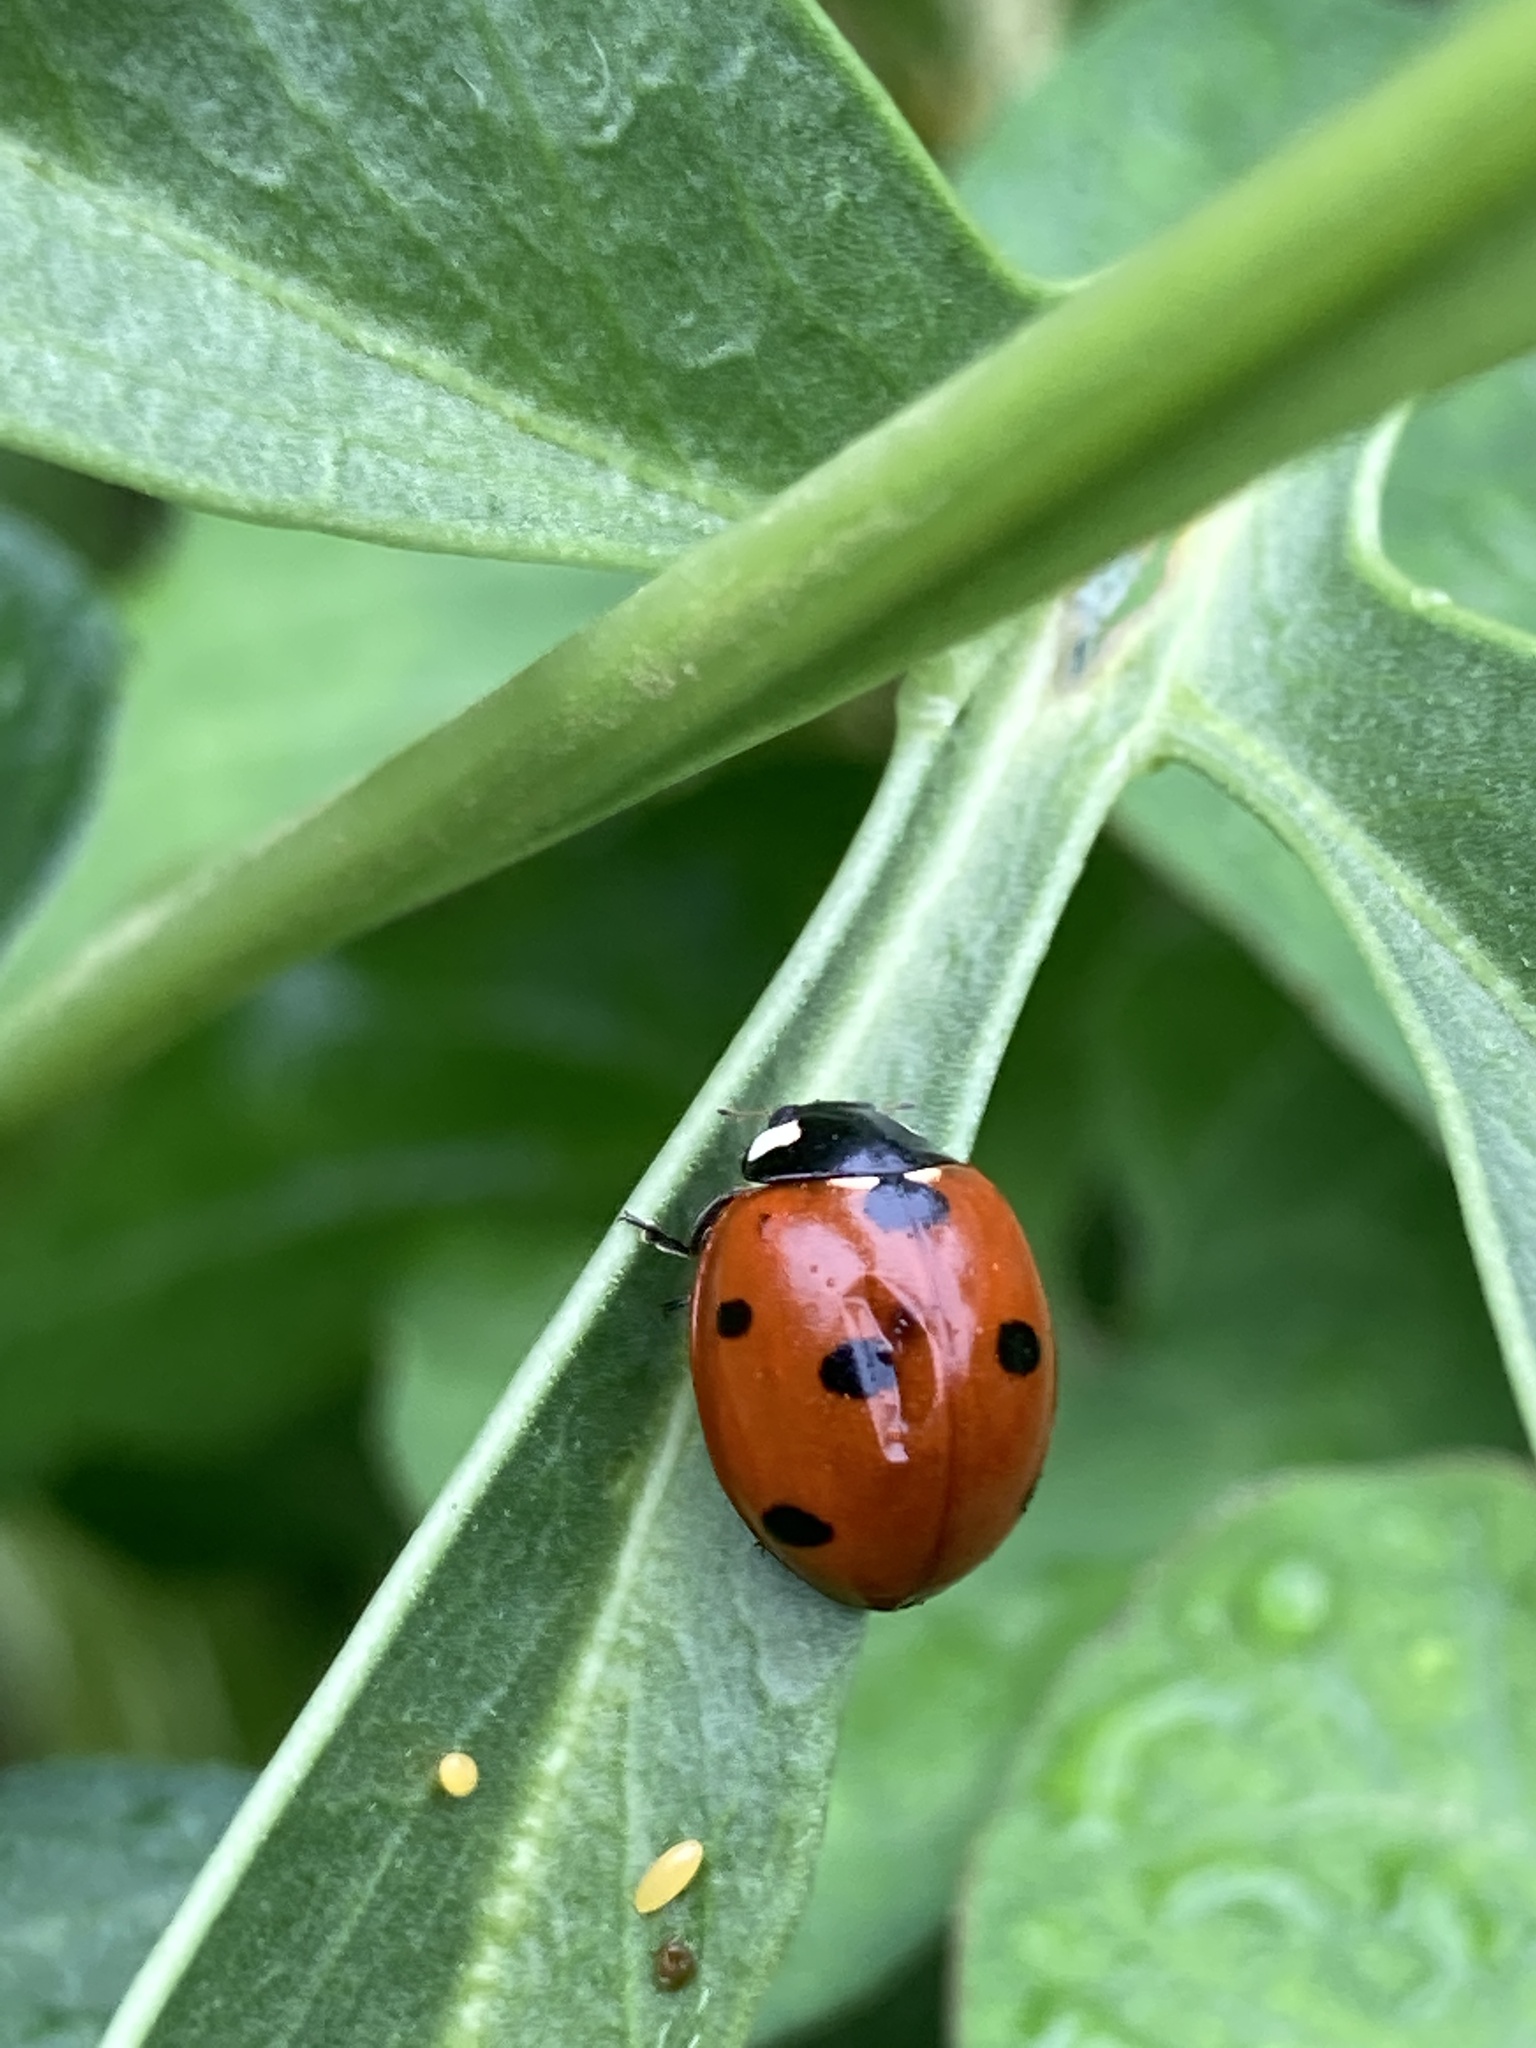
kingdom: Animalia
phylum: Arthropoda
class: Insecta
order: Coleoptera
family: Coccinellidae
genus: Coccinella
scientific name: Coccinella septempunctata
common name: Sevenspotted lady beetle
